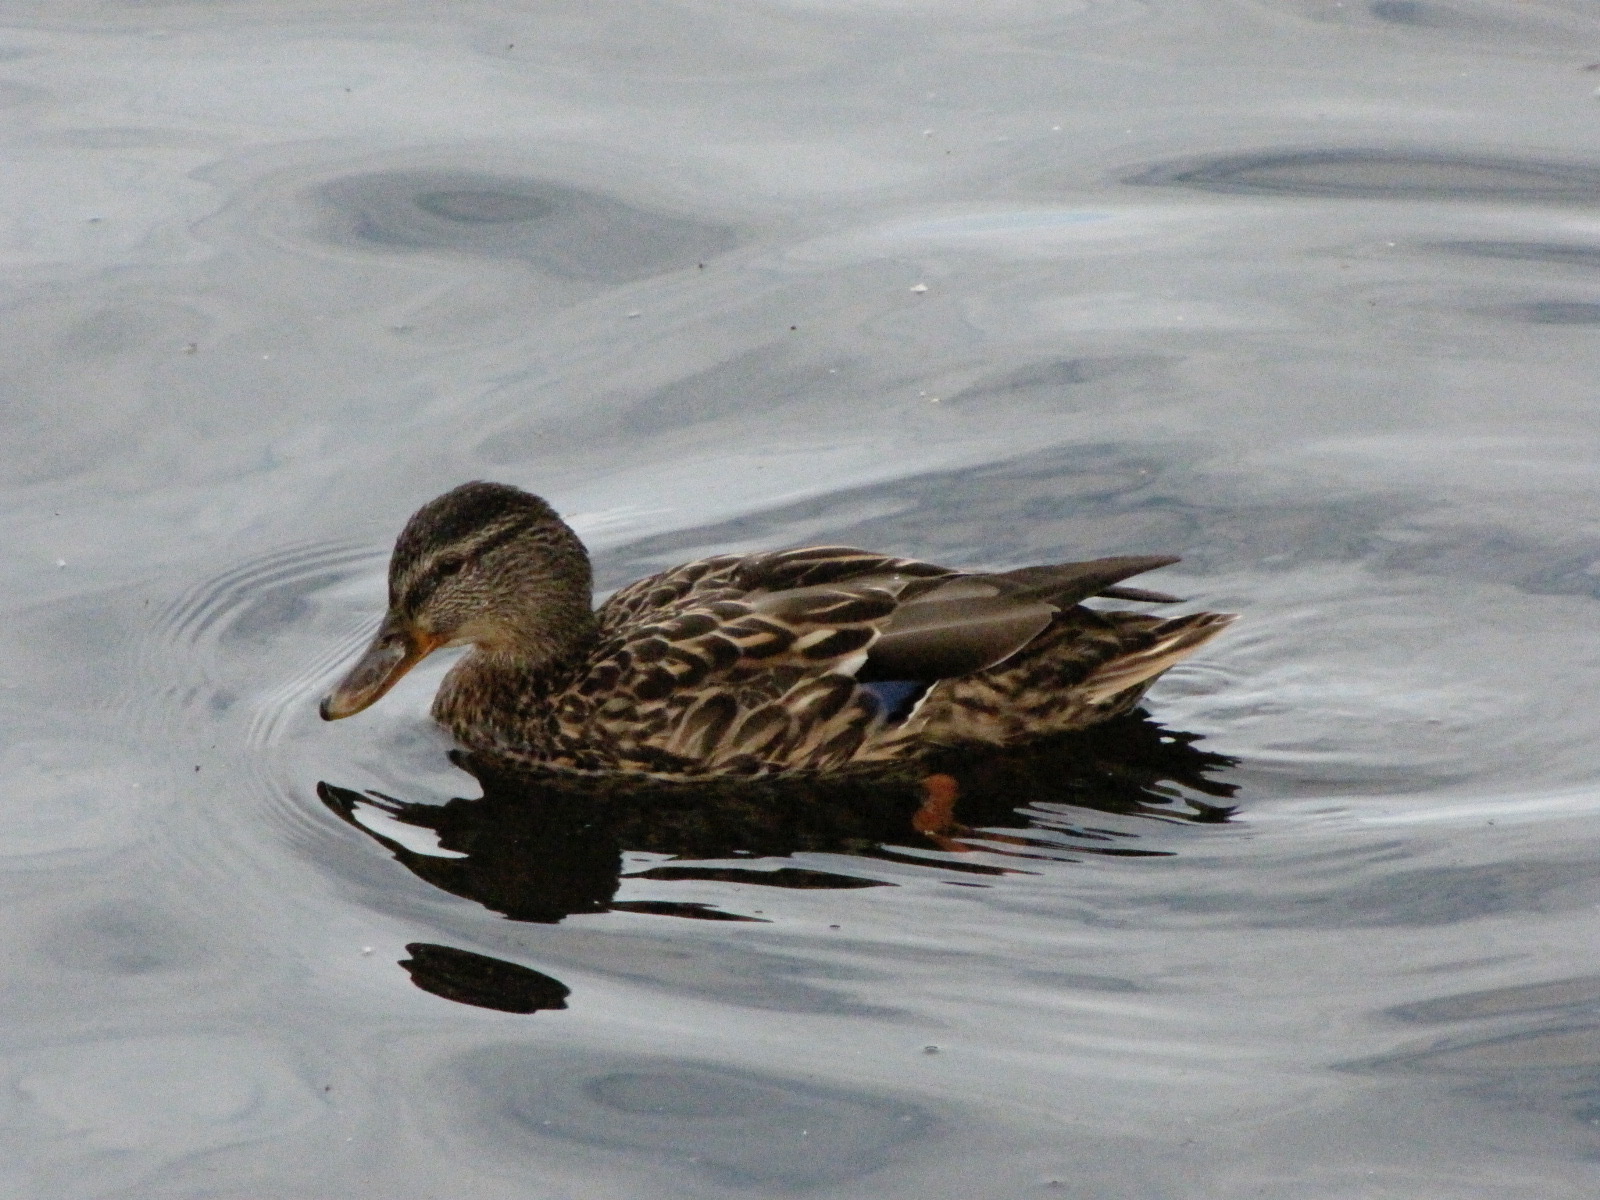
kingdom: Animalia
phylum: Chordata
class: Aves
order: Anseriformes
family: Anatidae
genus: Anas
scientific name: Anas platyrhynchos
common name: Mallard
